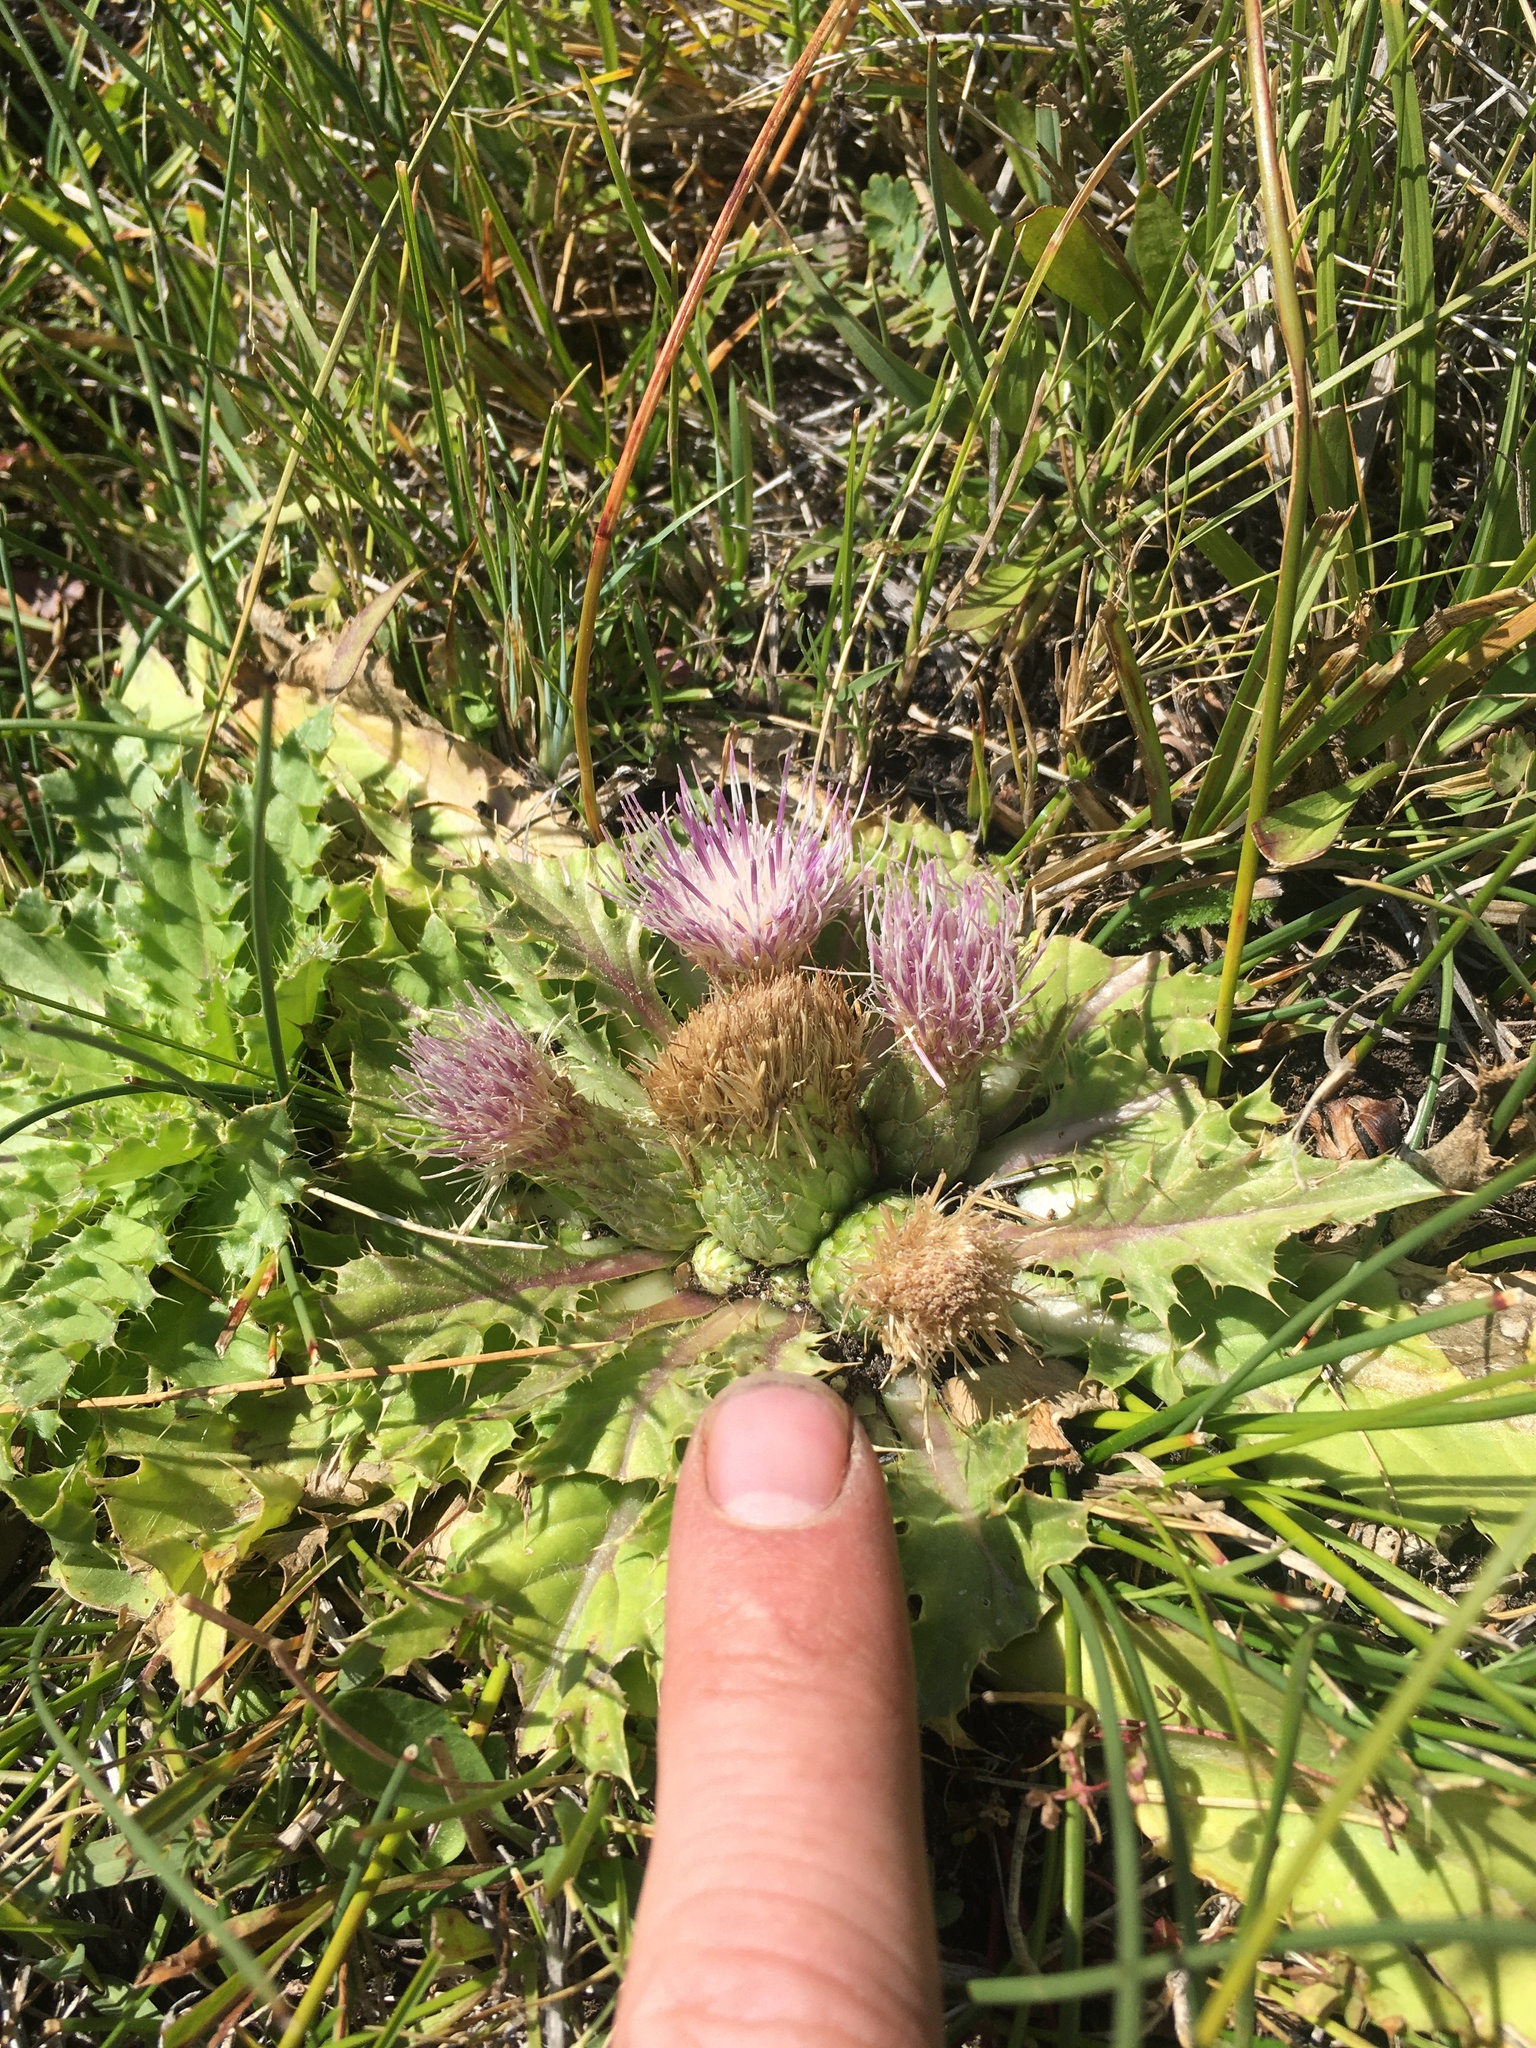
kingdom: Plantae
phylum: Tracheophyta
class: Magnoliopsida
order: Asterales
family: Asteraceae
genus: Cirsium
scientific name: Cirsium congdonii
